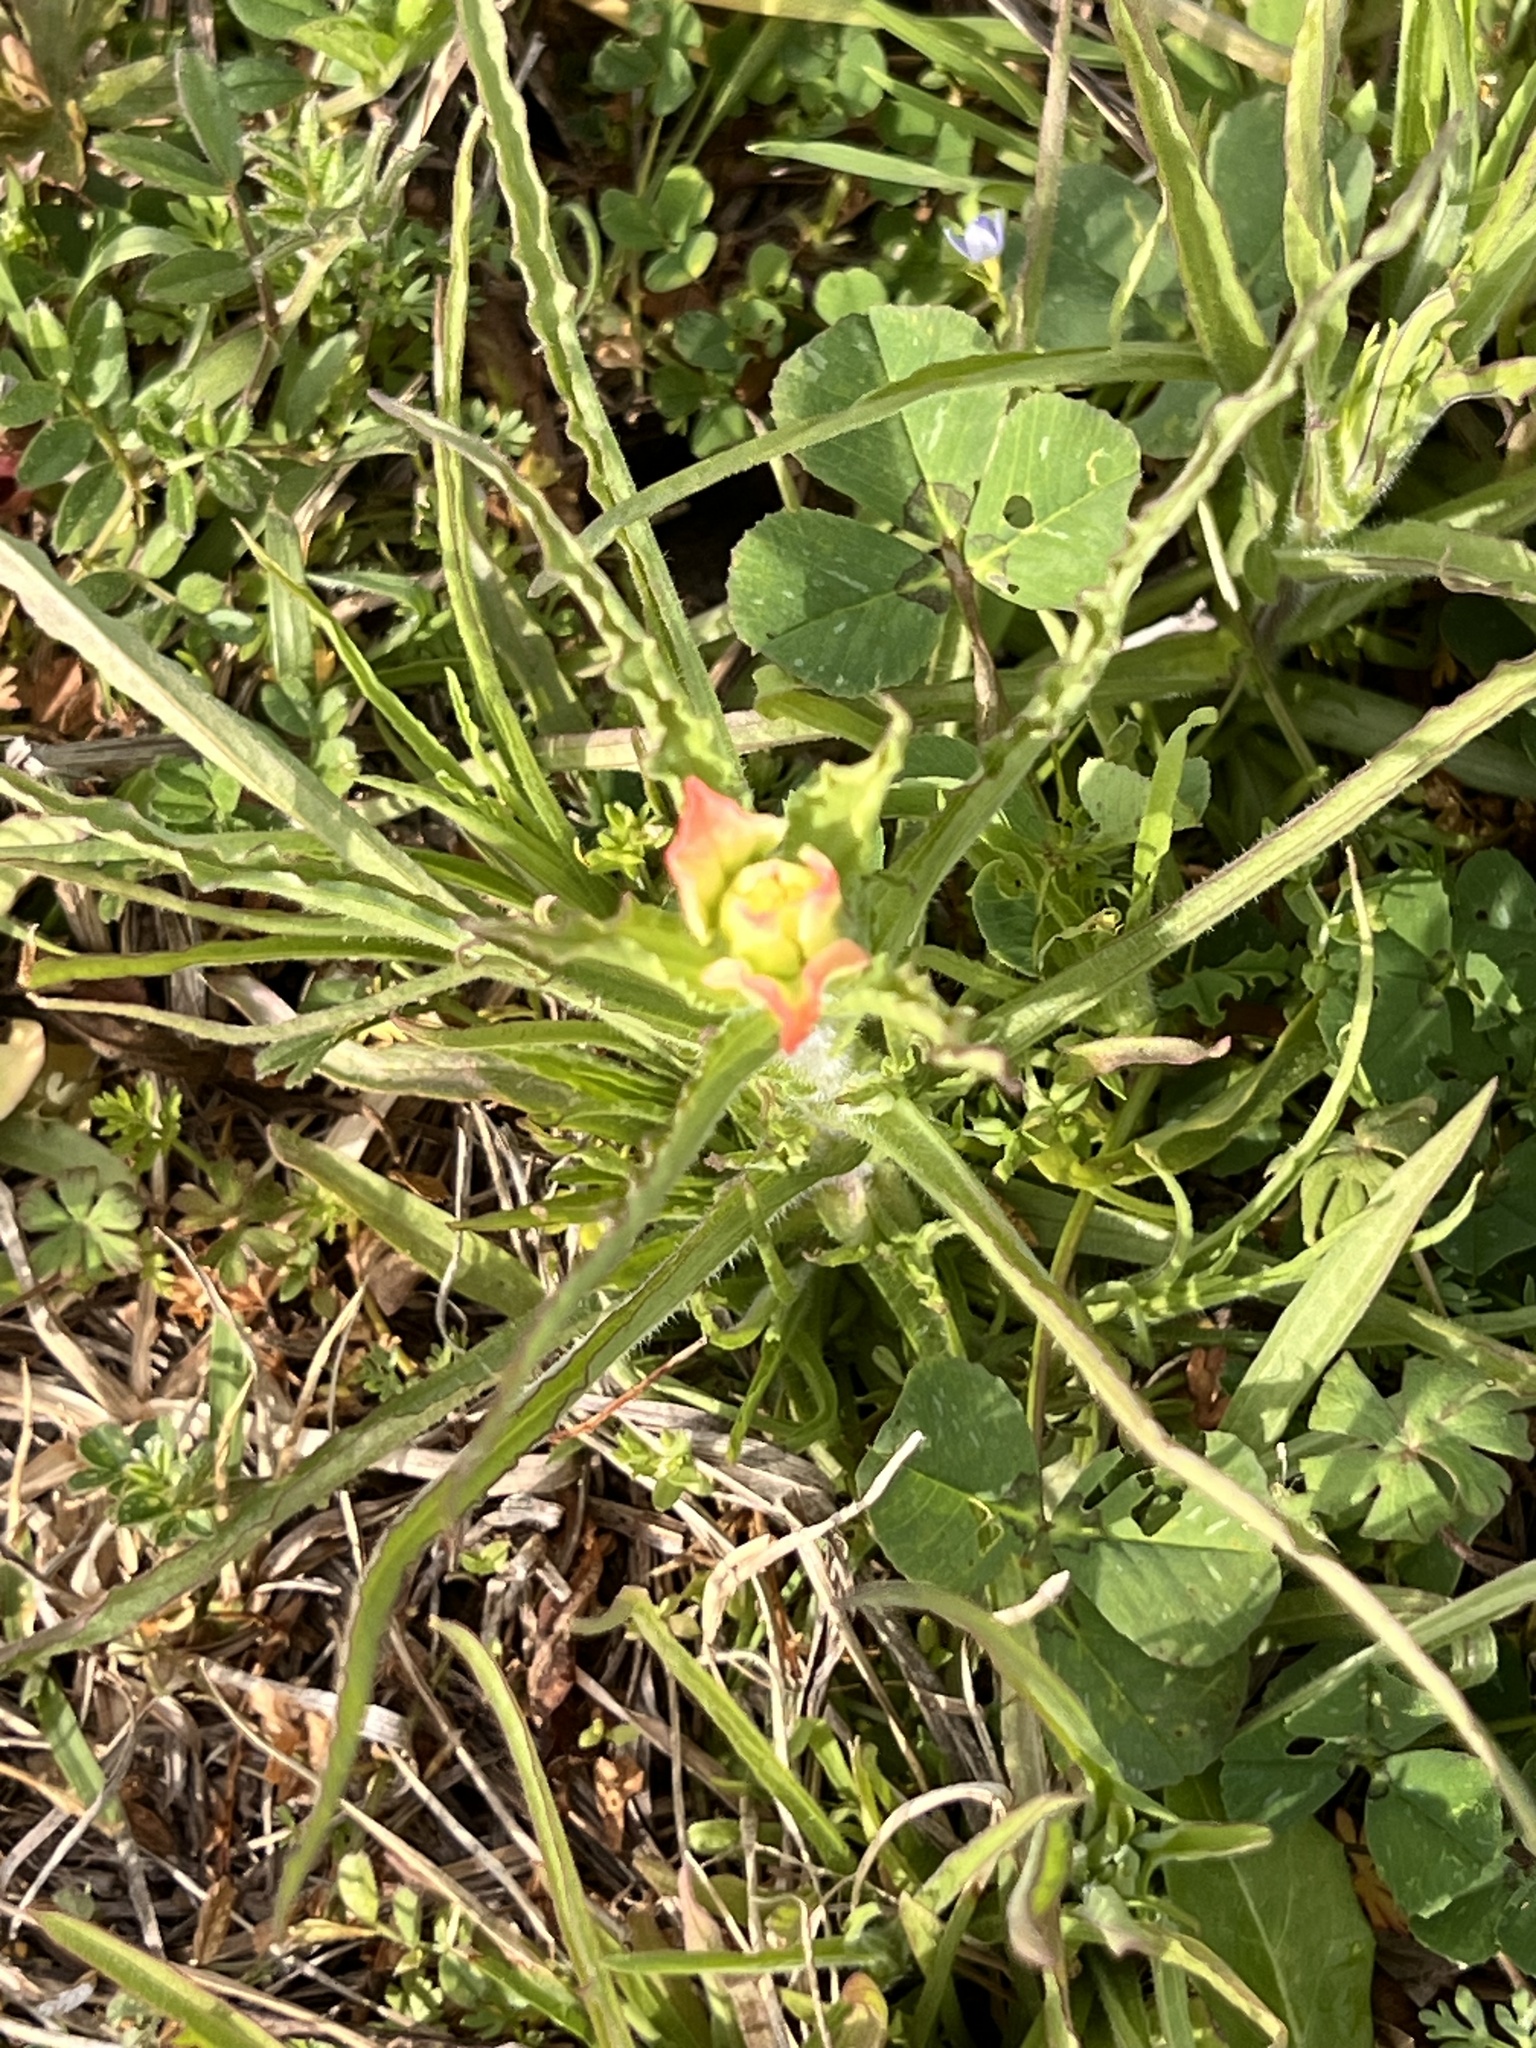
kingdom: Plantae
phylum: Tracheophyta
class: Magnoliopsida
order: Lamiales
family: Orobanchaceae
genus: Castilleja
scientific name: Castilleja indivisa
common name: Texas paintbrush
